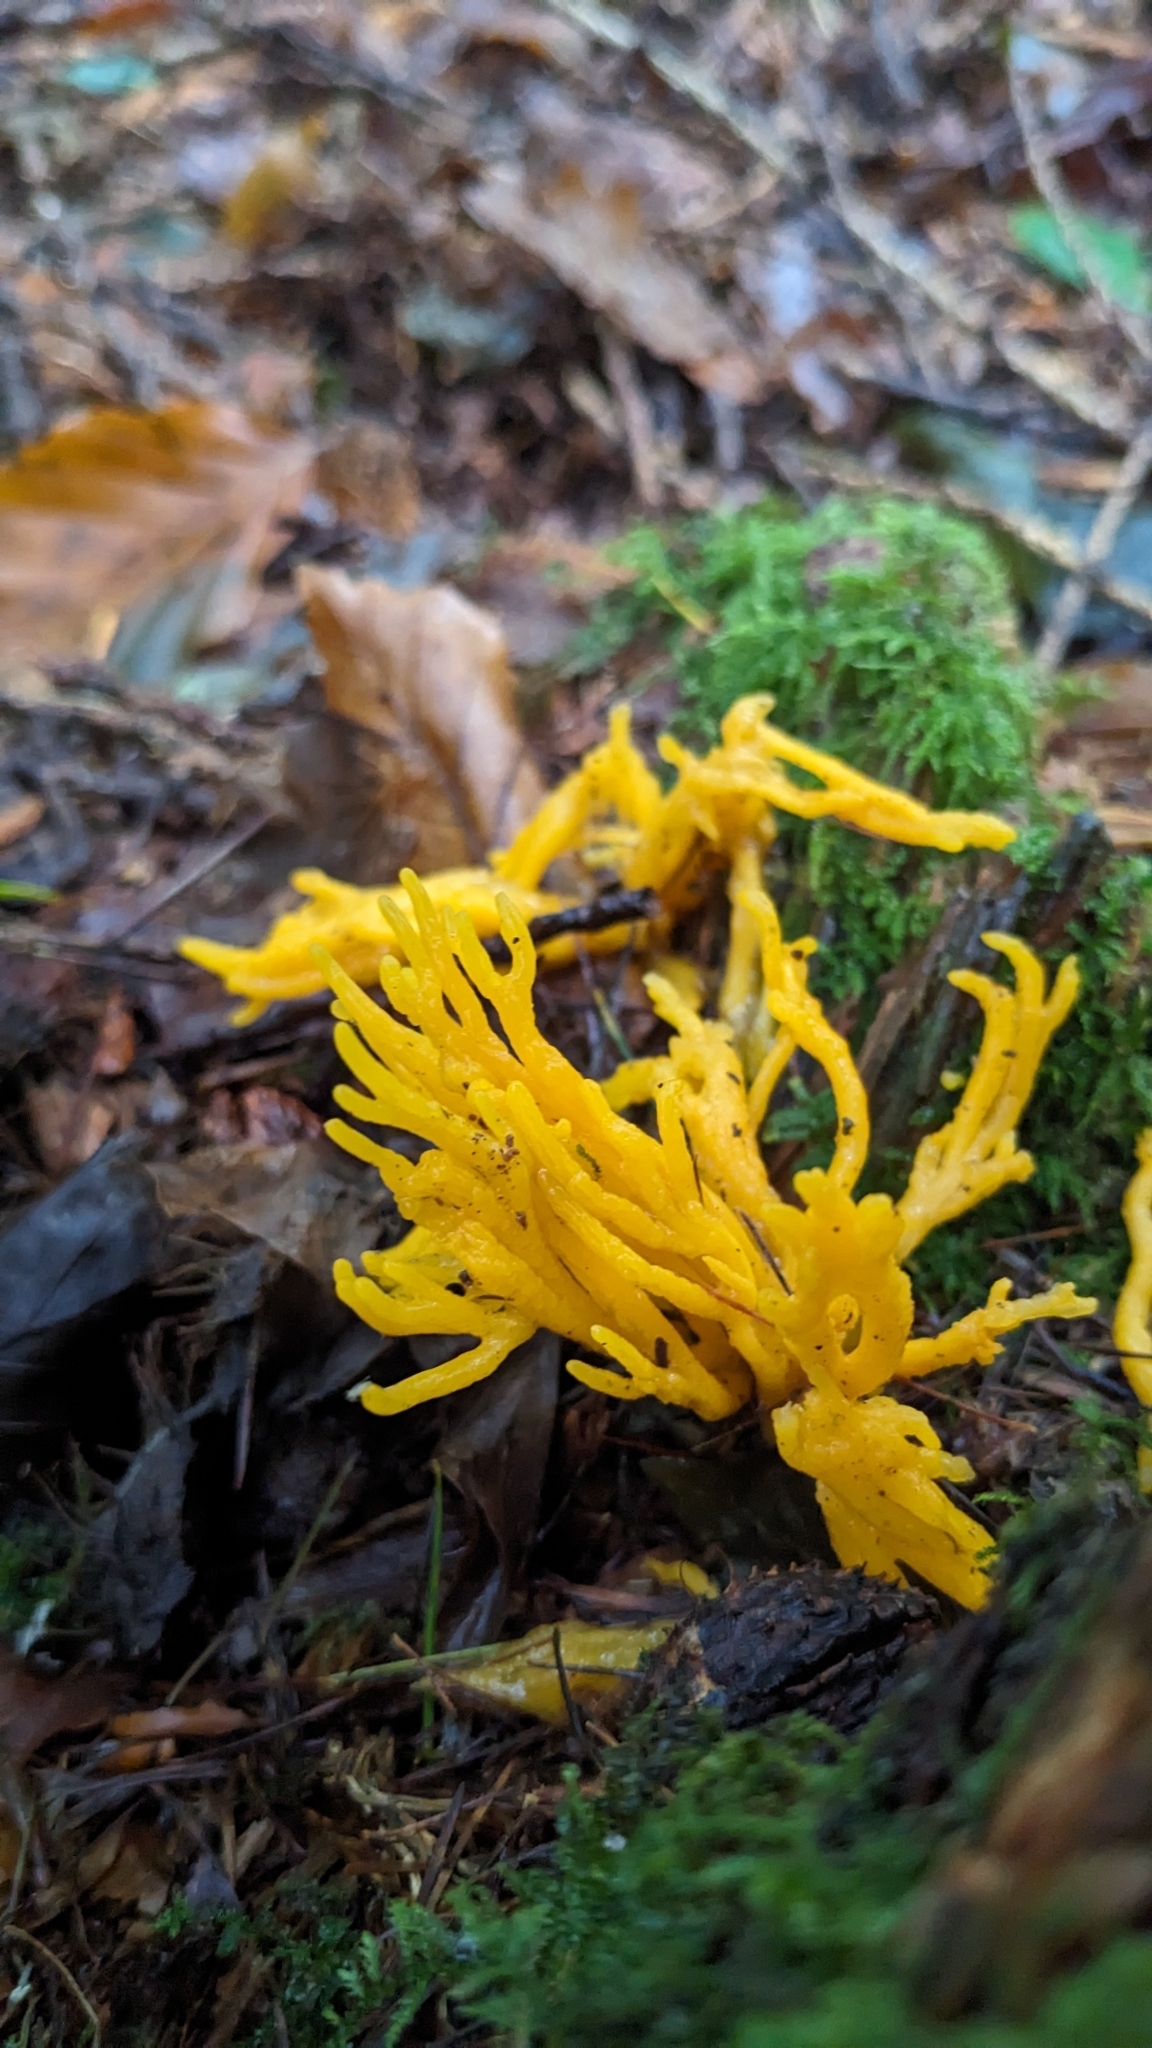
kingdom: Fungi
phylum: Basidiomycota
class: Dacrymycetes
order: Dacrymycetales
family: Dacrymycetaceae
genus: Calocera
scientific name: Calocera viscosa
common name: Yellow stagshorn
